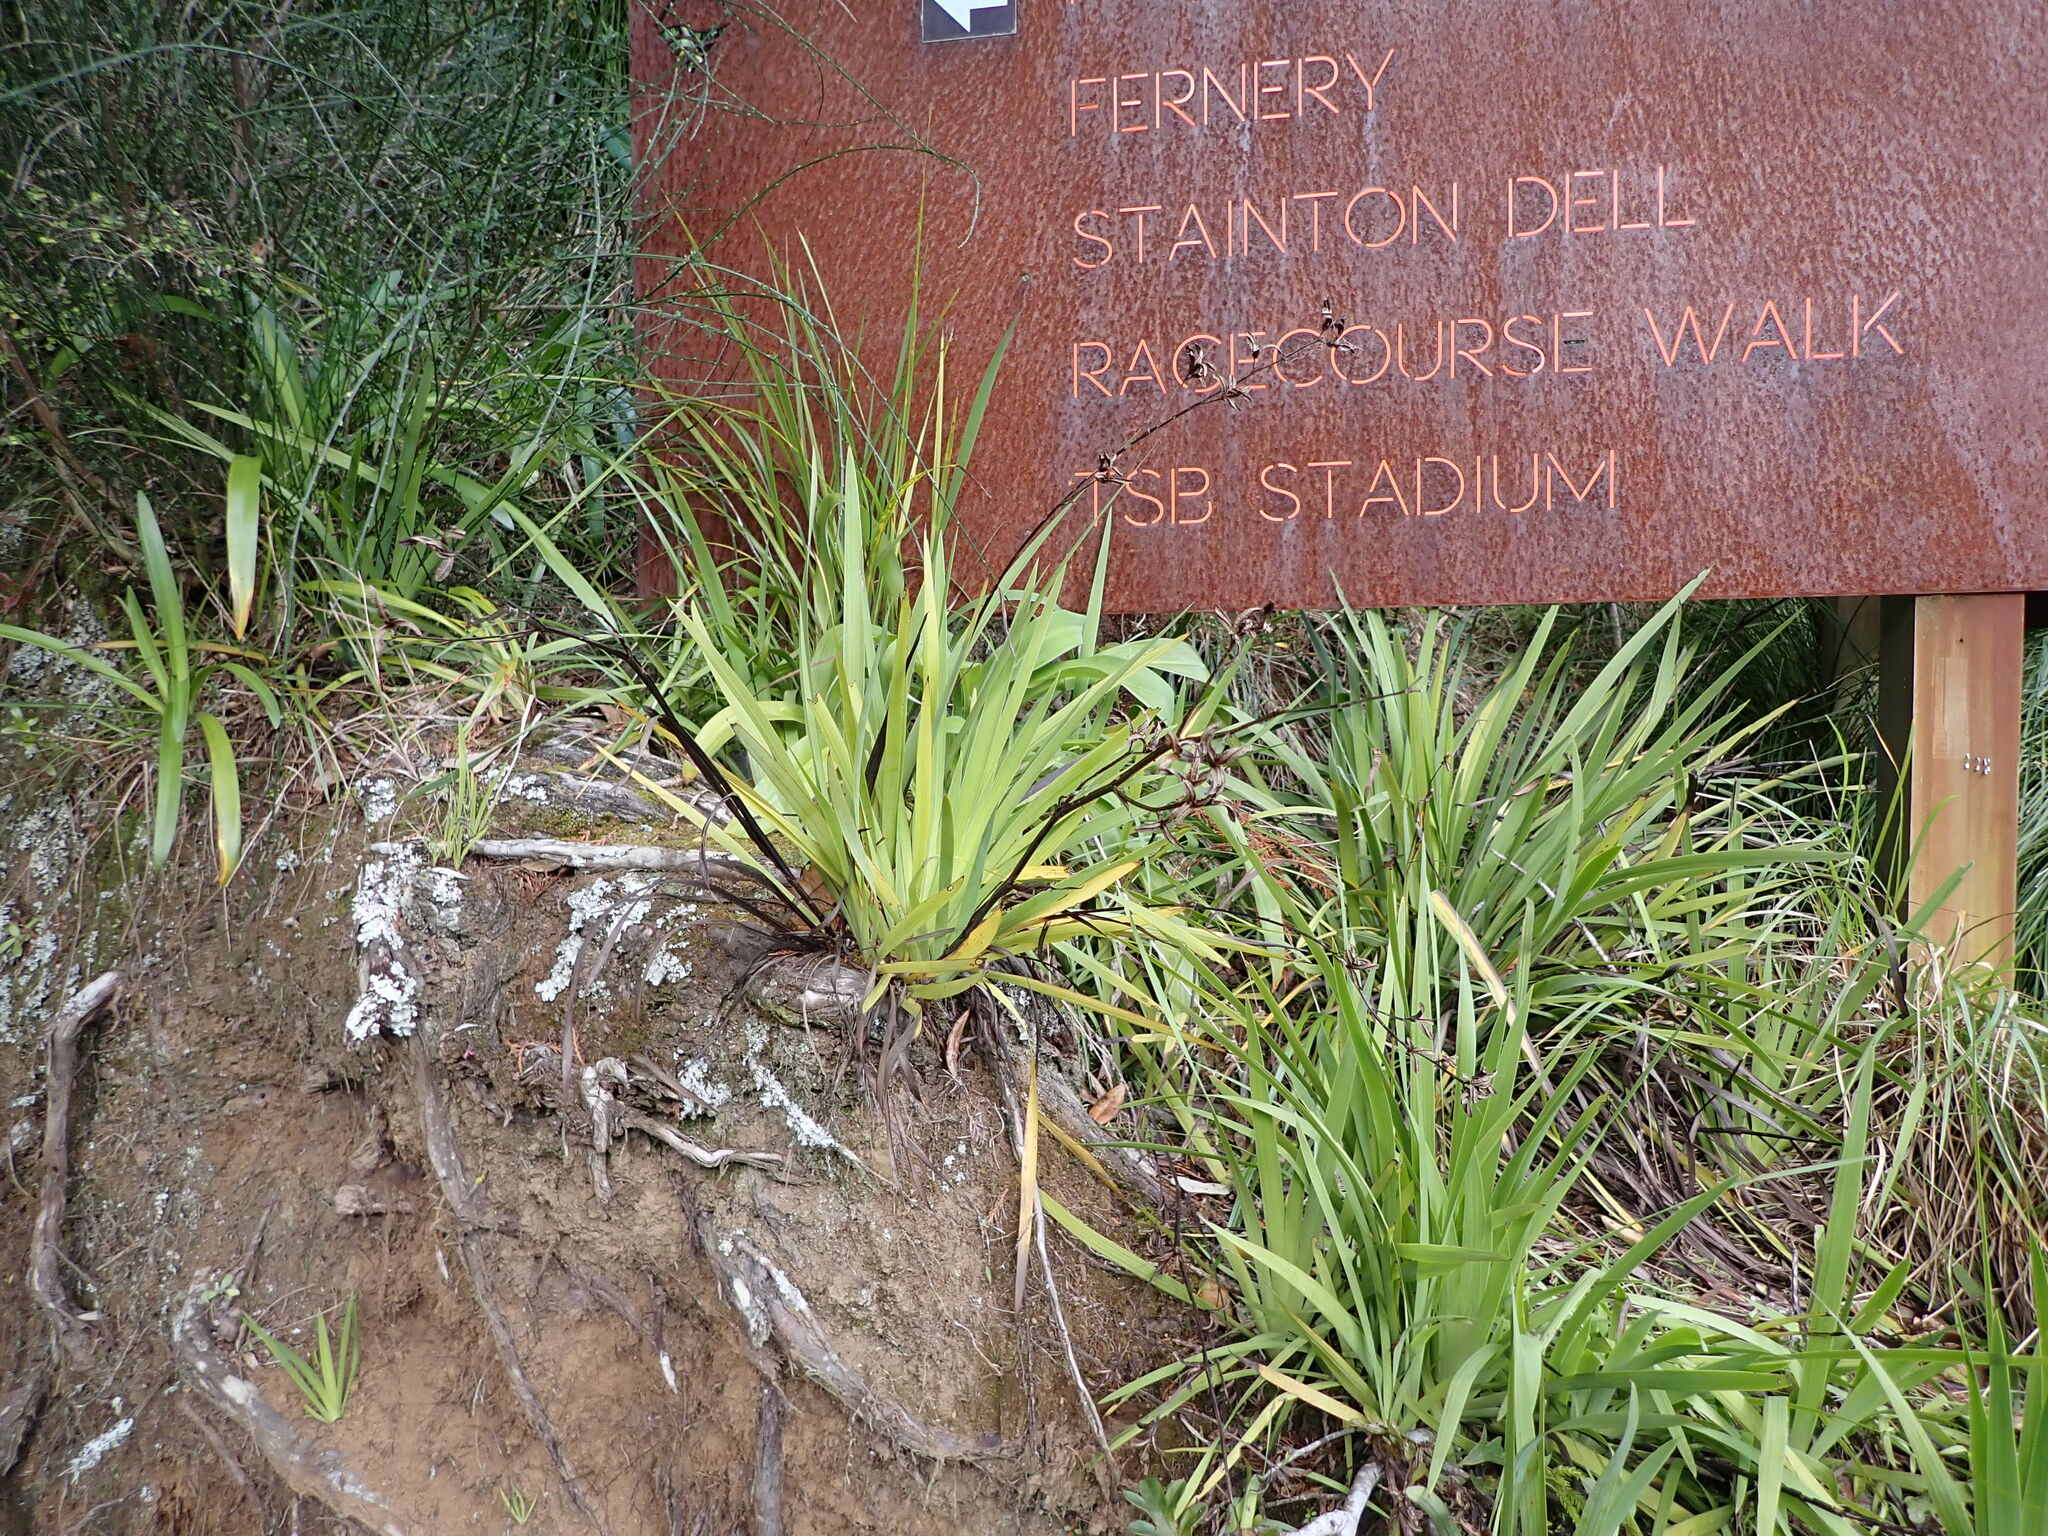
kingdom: Plantae
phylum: Tracheophyta
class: Liliopsida
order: Asparagales
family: Iridaceae
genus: Aristea
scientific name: Aristea ecklonii
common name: Blue corn-lily
